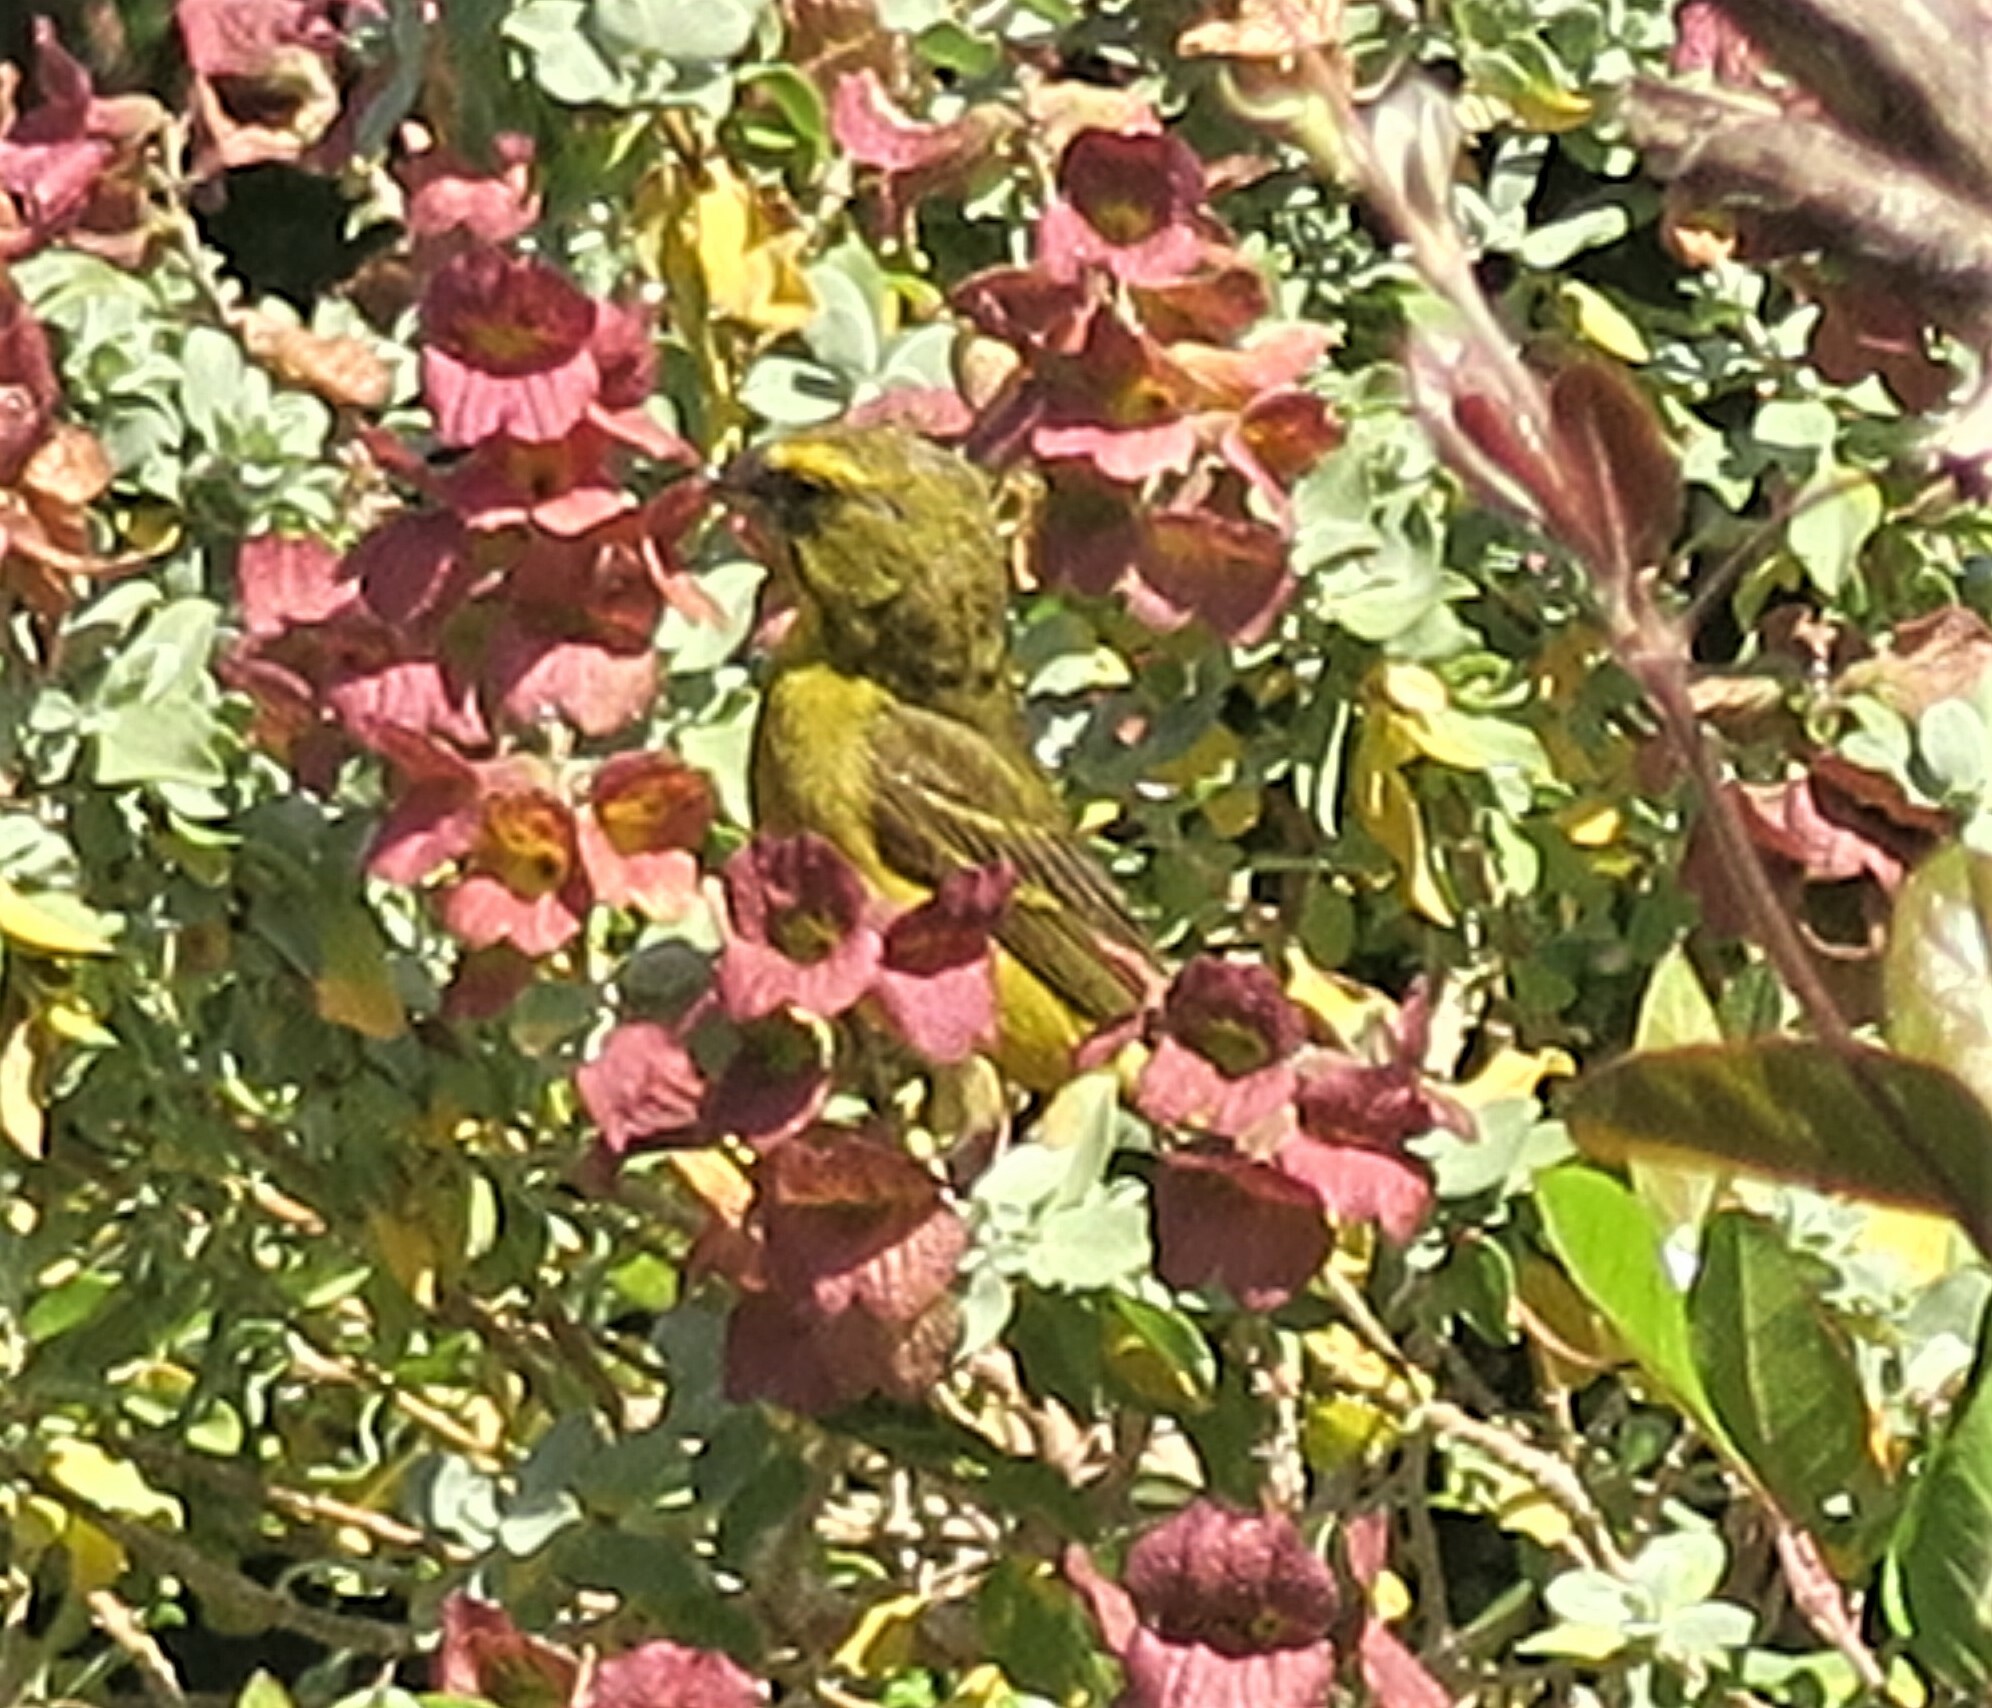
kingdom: Animalia
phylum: Chordata
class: Aves
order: Passeriformes
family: Fringillidae
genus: Crithagra
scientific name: Crithagra sulphurata
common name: Brimstone canary
